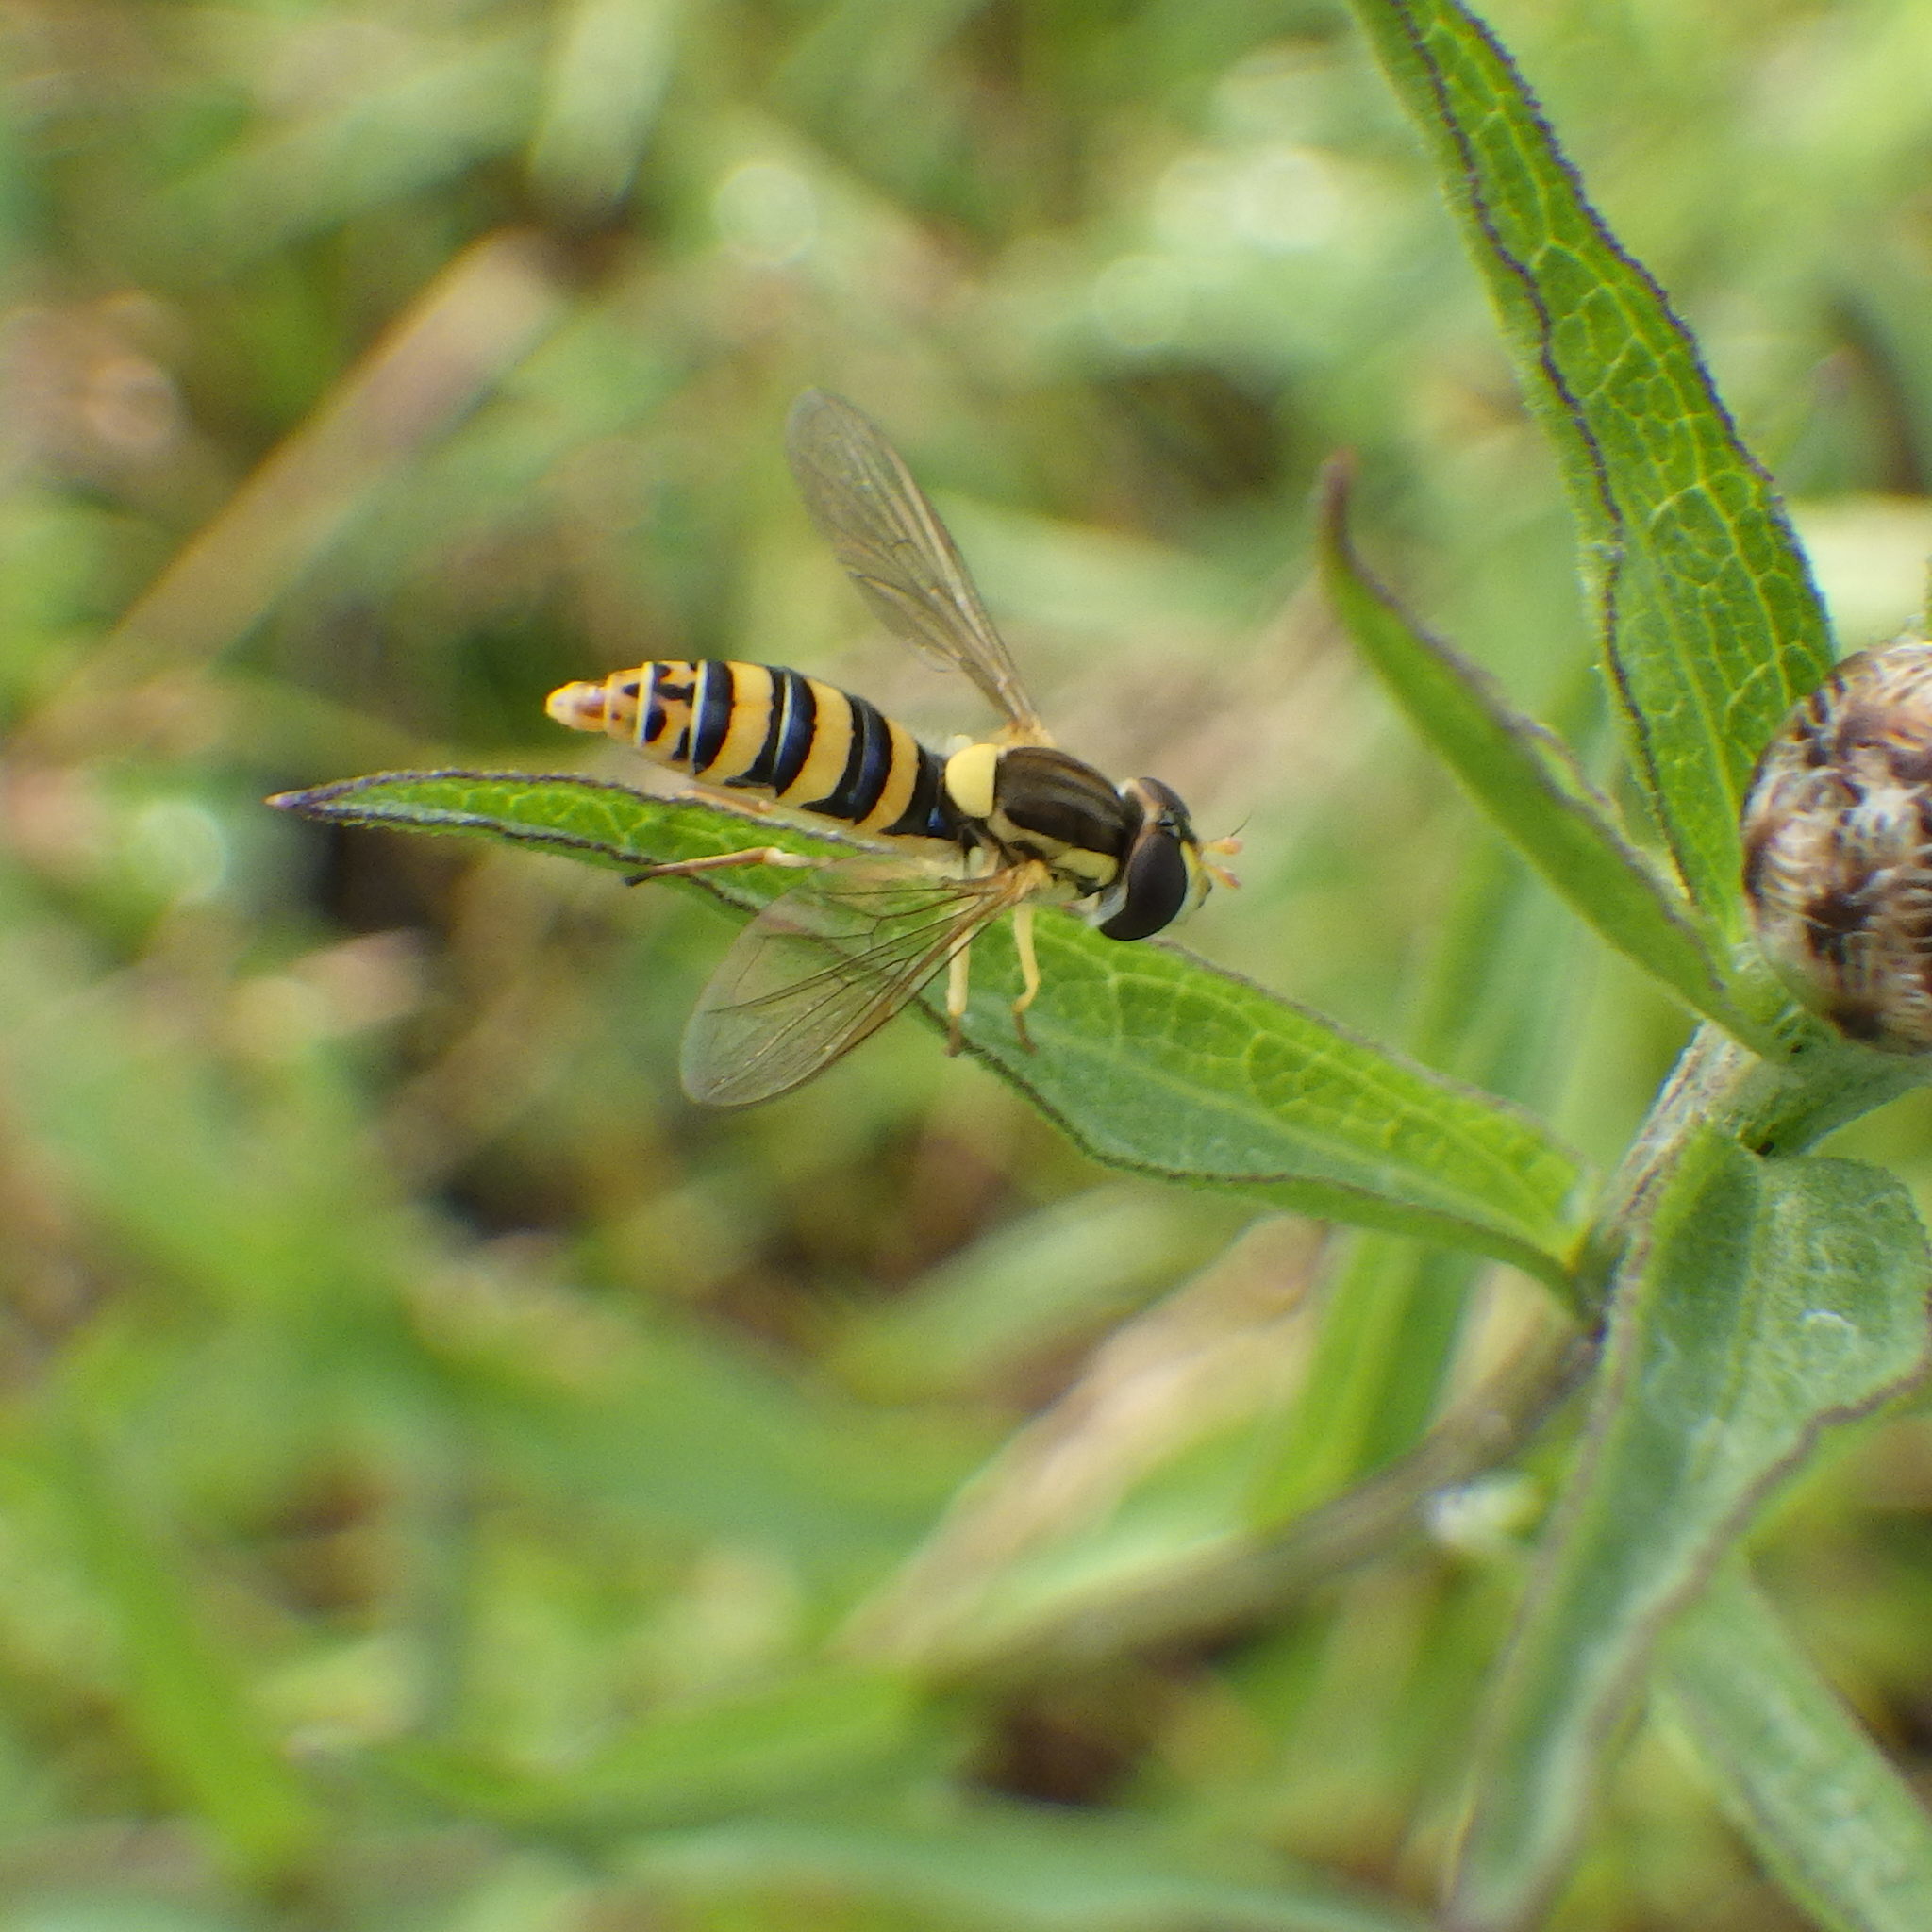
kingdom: Animalia
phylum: Arthropoda
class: Insecta
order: Diptera
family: Syrphidae
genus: Sphaerophoria
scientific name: Sphaerophoria
